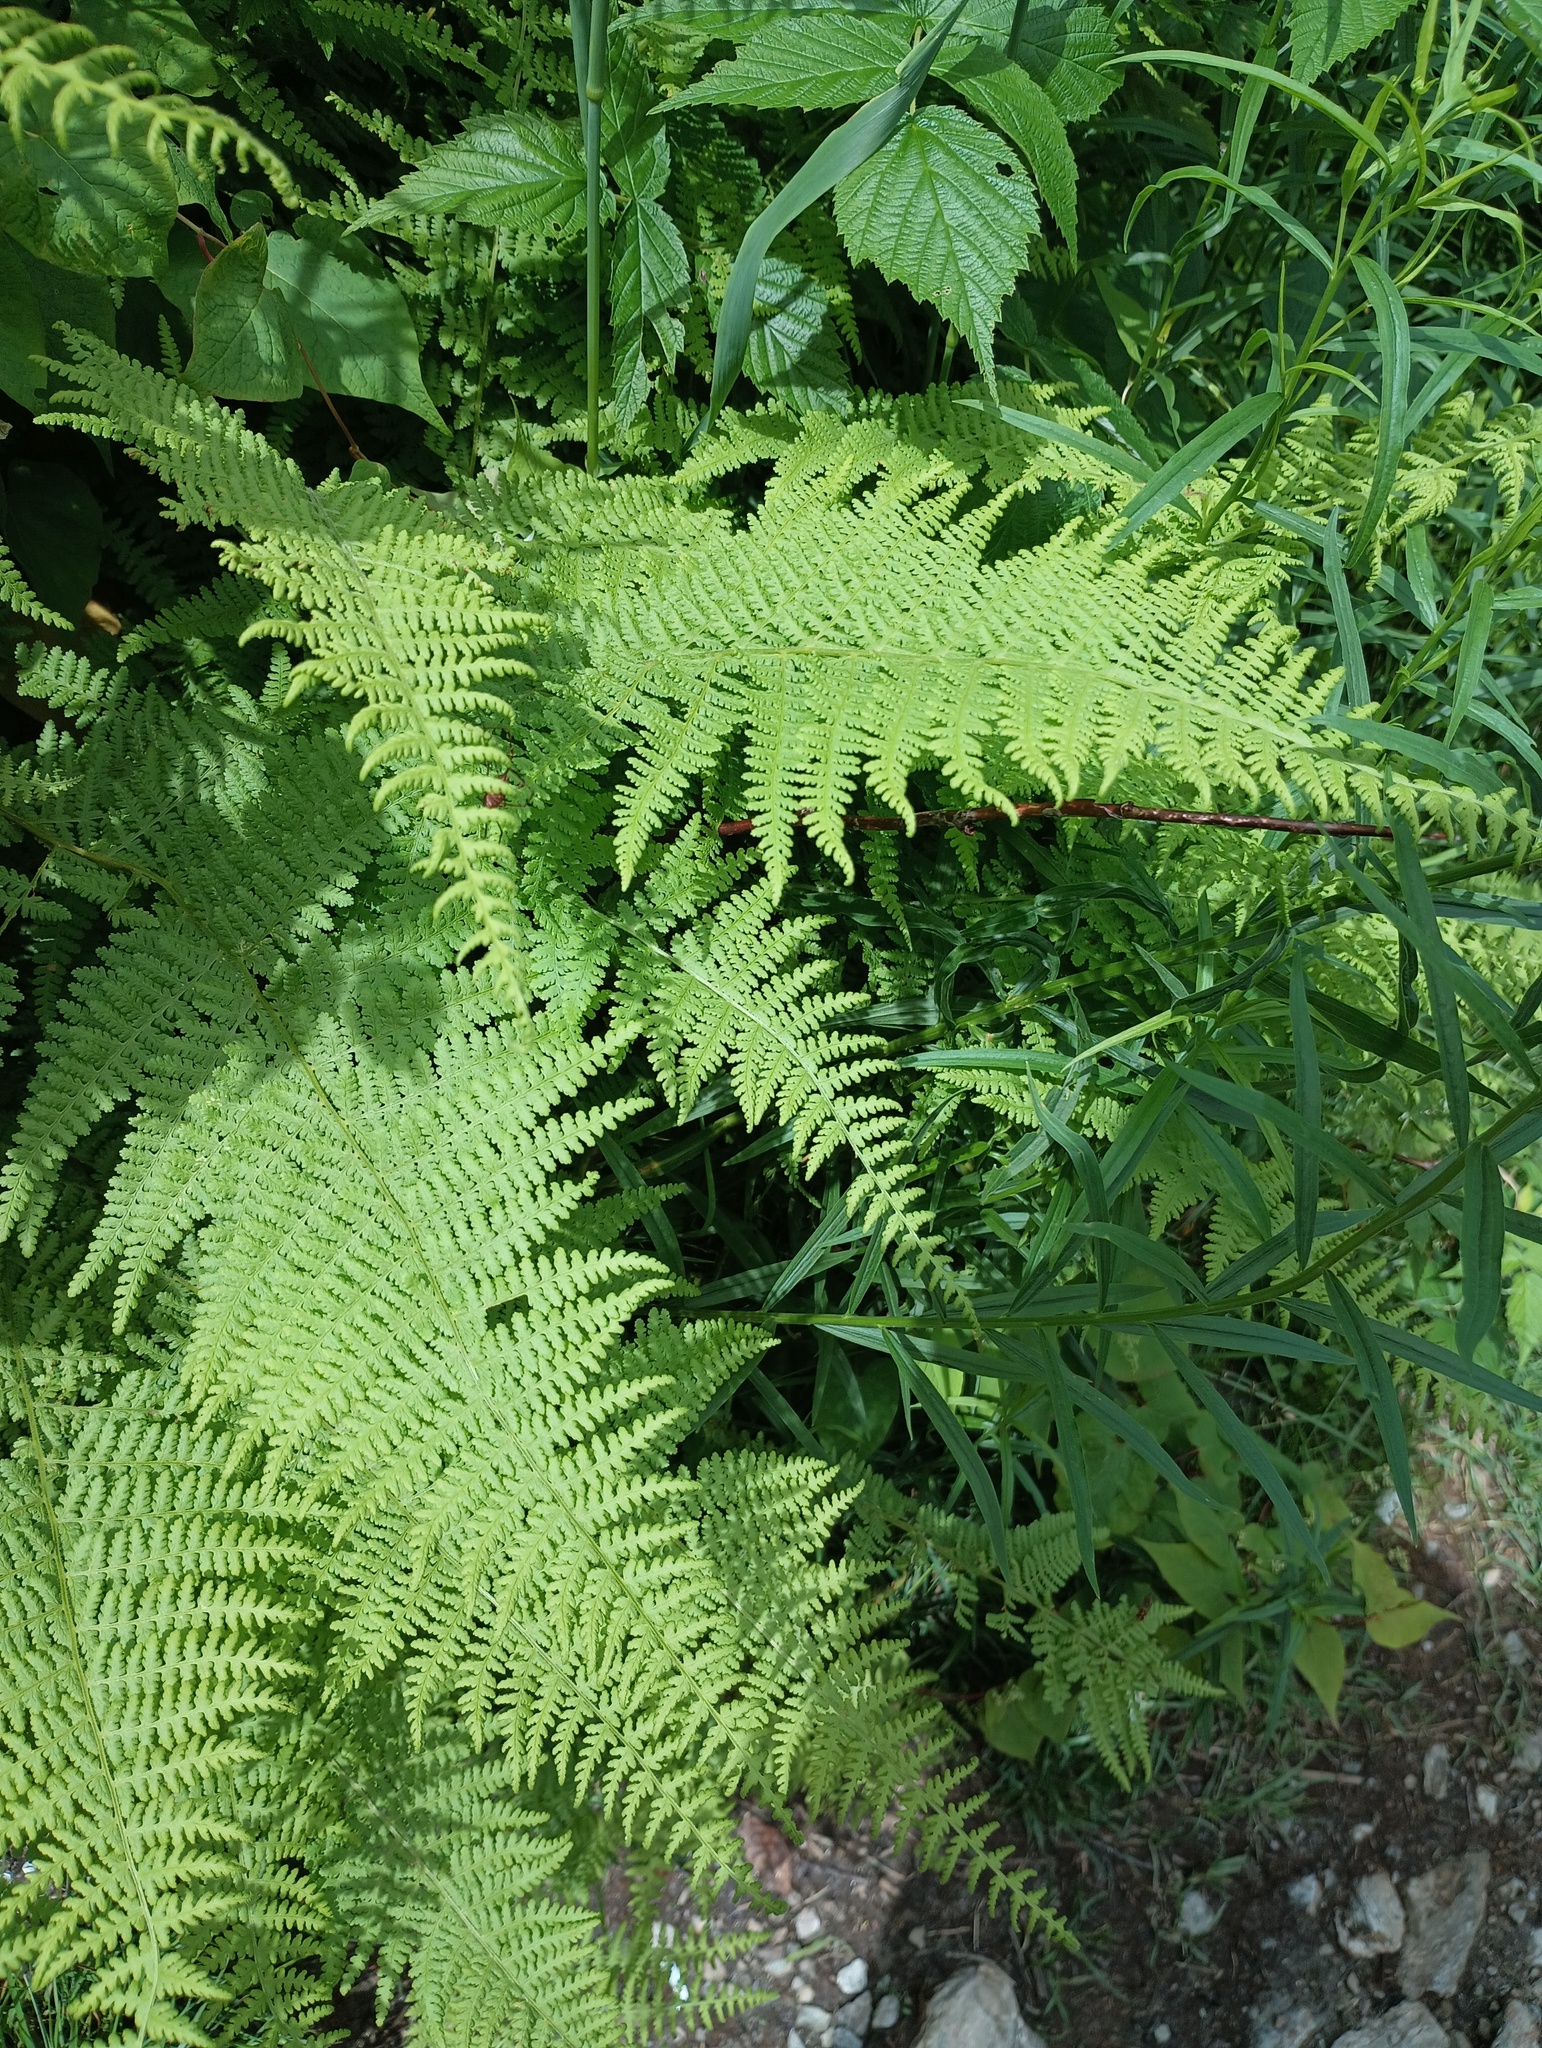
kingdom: Plantae
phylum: Tracheophyta
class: Polypodiopsida
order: Polypodiales
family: Dennstaedtiaceae
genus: Sitobolium
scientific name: Sitobolium punctilobum
